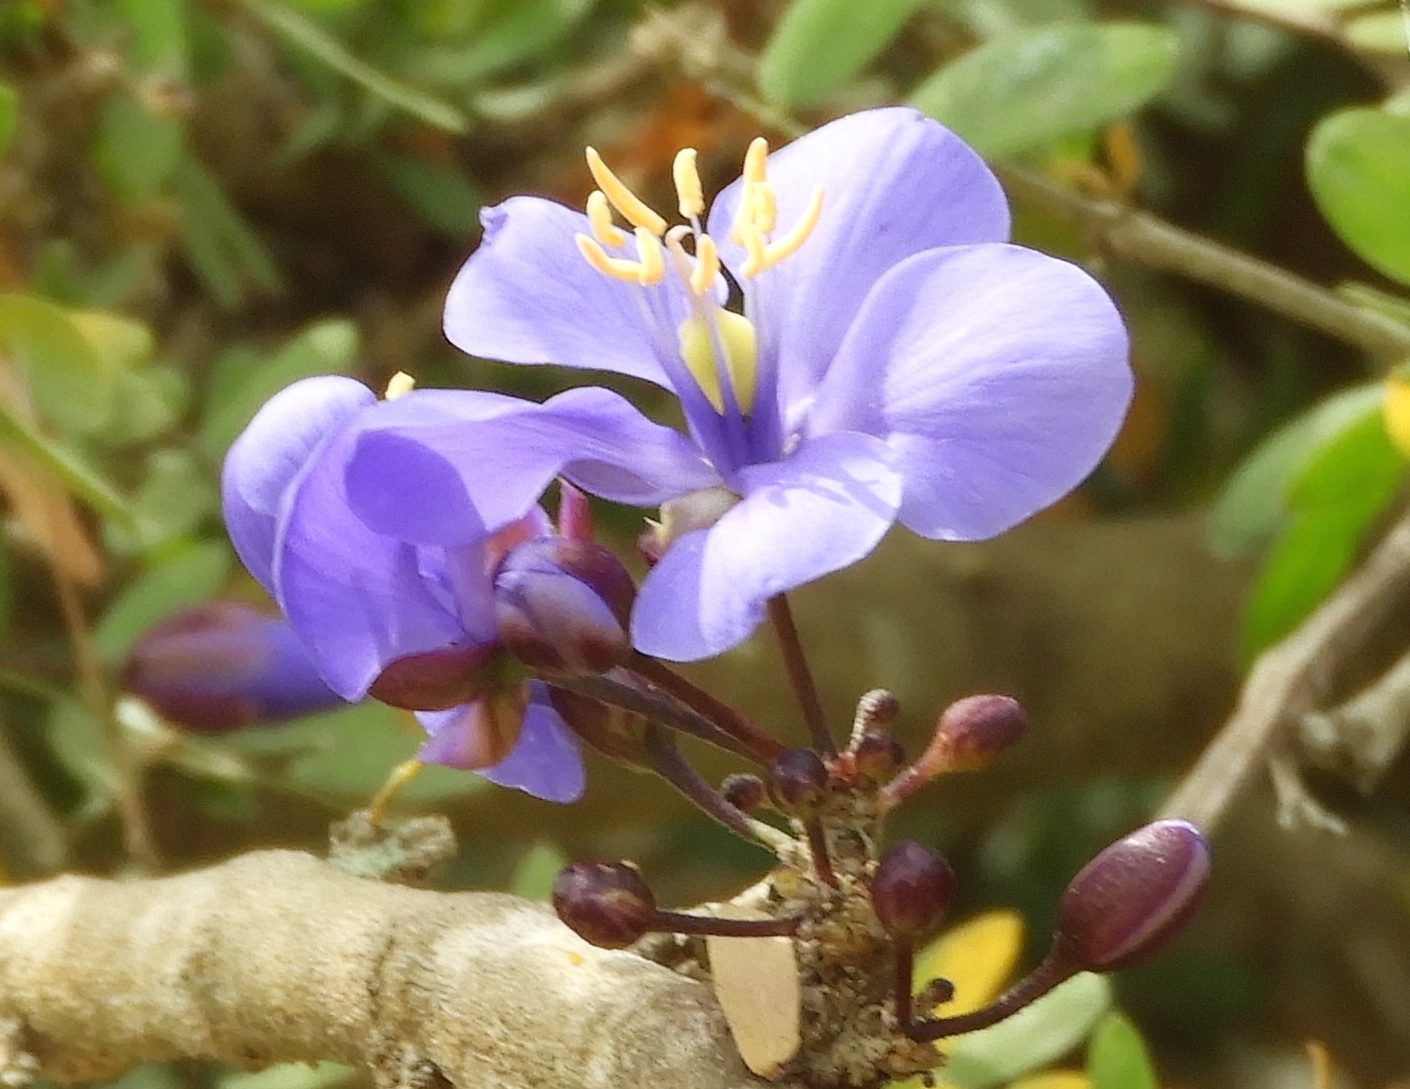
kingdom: Plantae
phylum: Tracheophyta
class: Magnoliopsida
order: Zygophyllales
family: Zygophyllaceae
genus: Guaiacum
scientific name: Guaiacum coulteri
